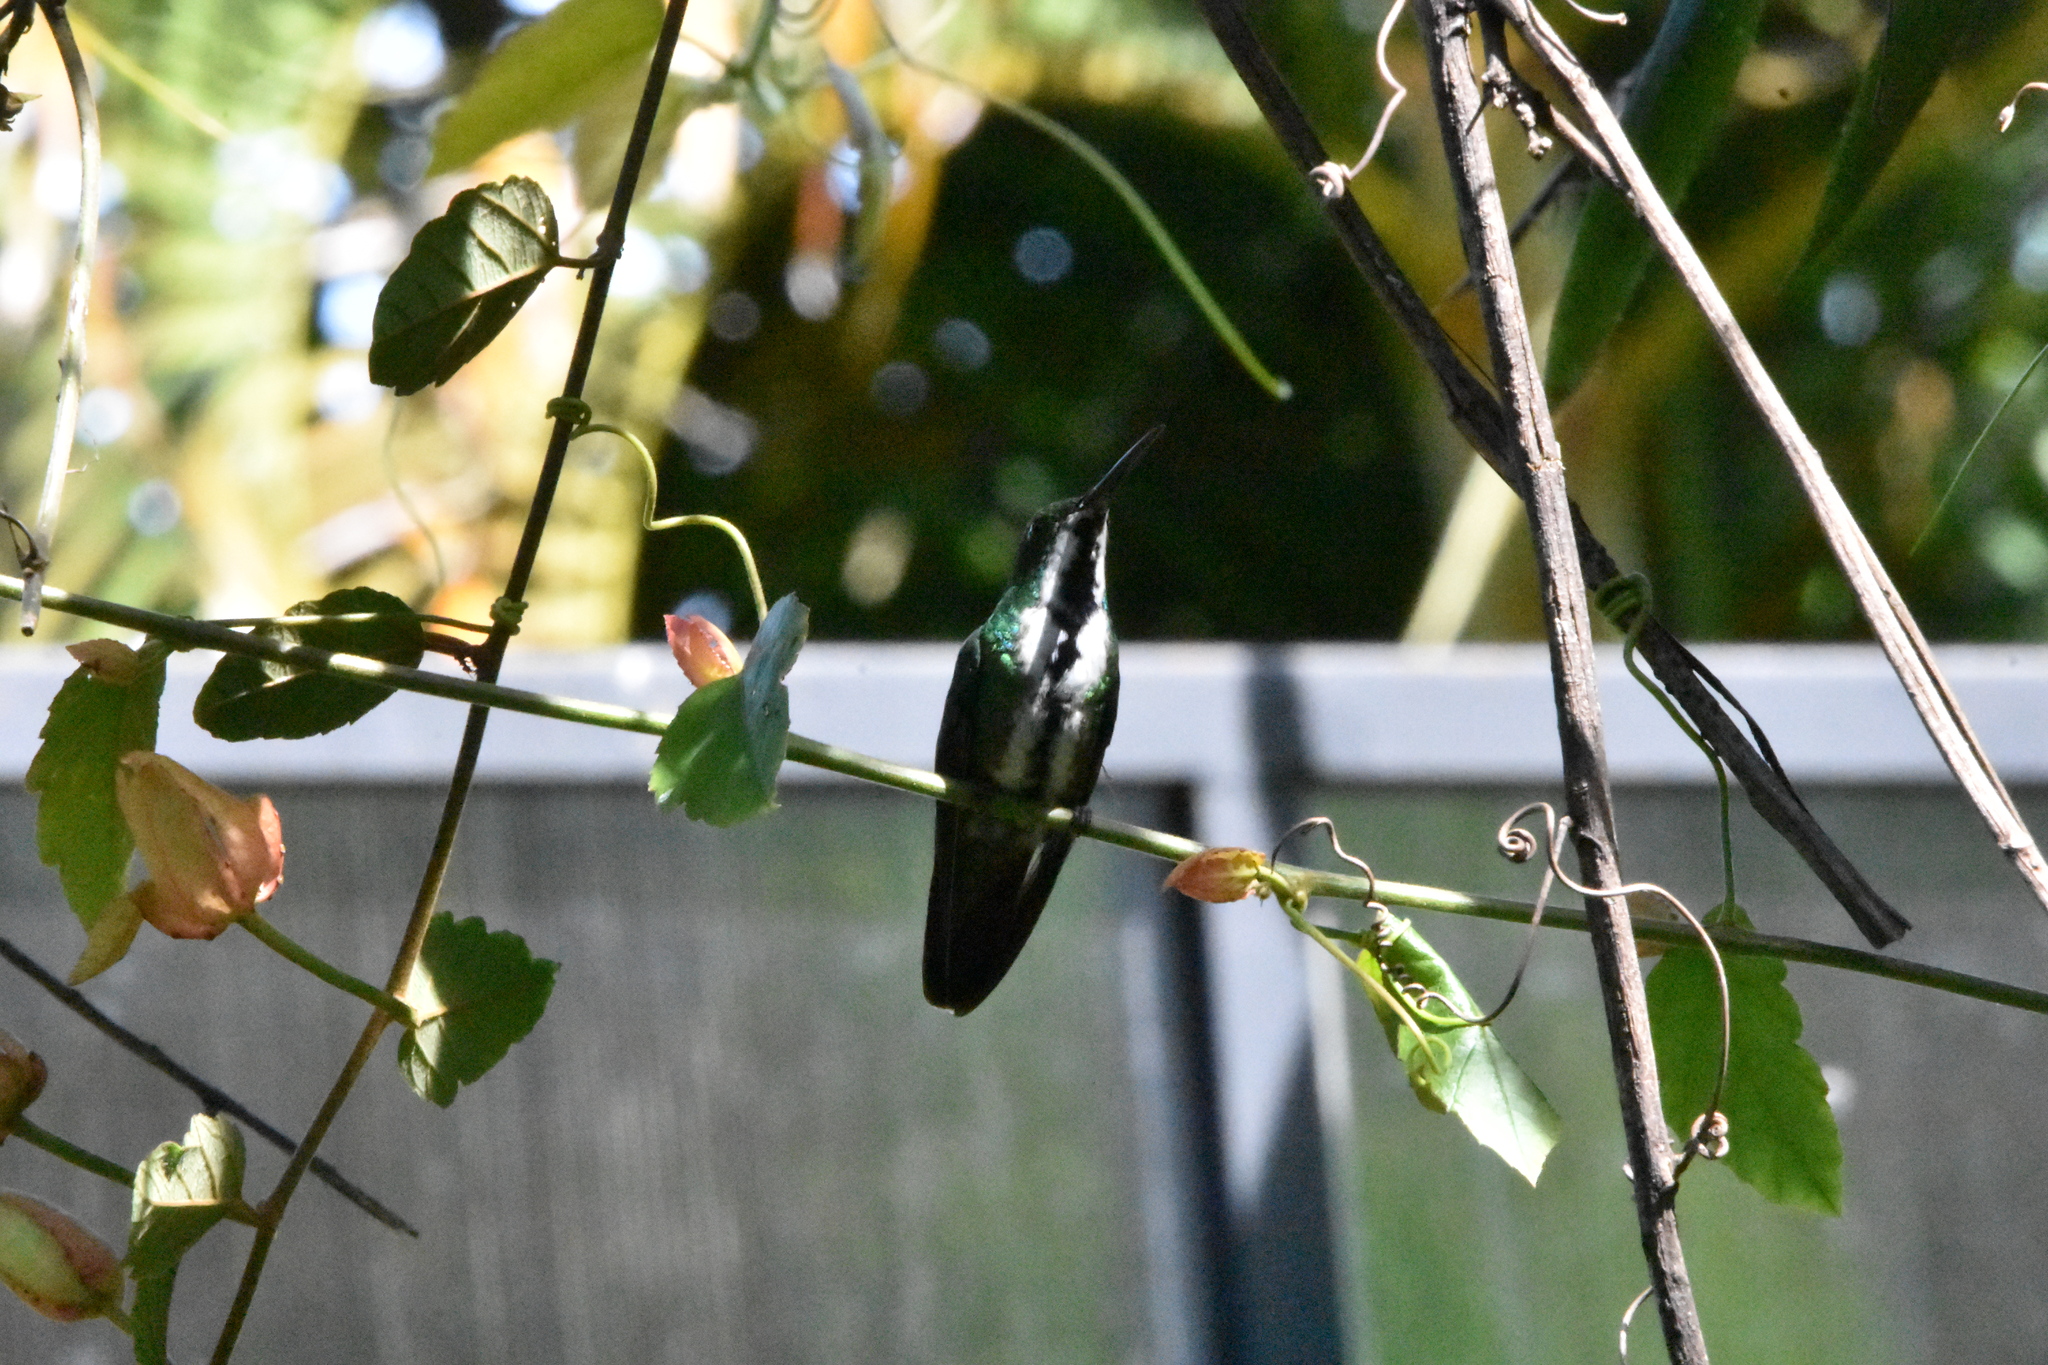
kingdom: Animalia
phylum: Chordata
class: Aves
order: Apodiformes
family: Trochilidae
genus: Anthracothorax
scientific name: Anthracothorax nigricollis
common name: Black-throated mango
